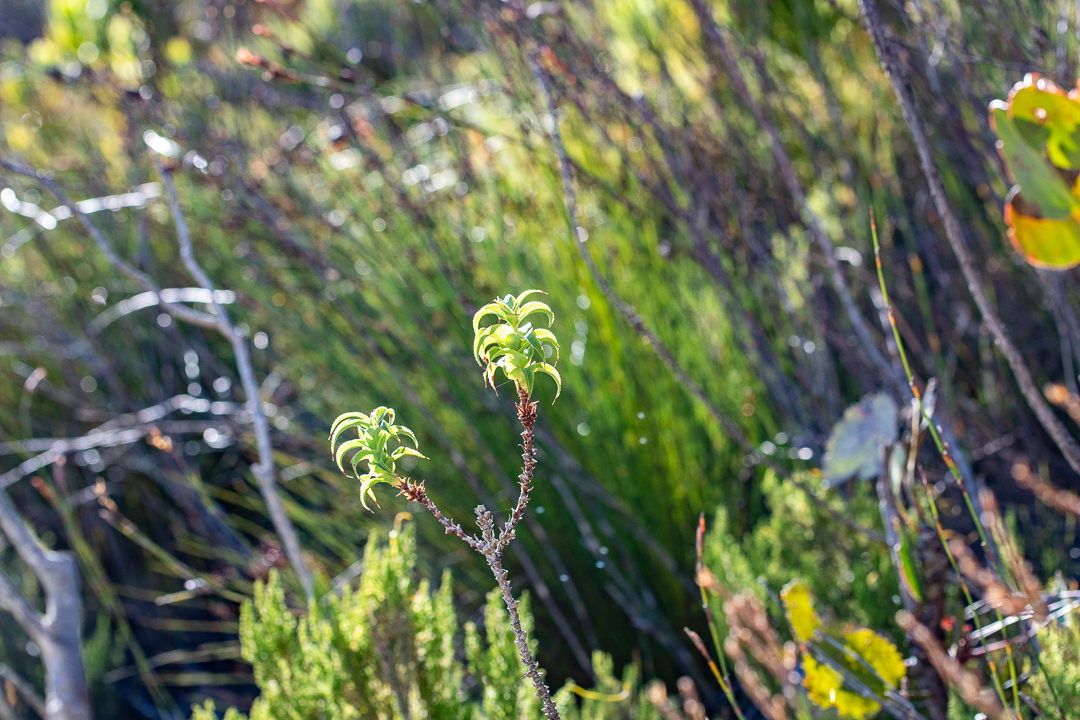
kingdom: Plantae
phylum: Tracheophyta
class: Magnoliopsida
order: Rosales
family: Rosaceae
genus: Cliffortia
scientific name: Cliffortia recurvata
